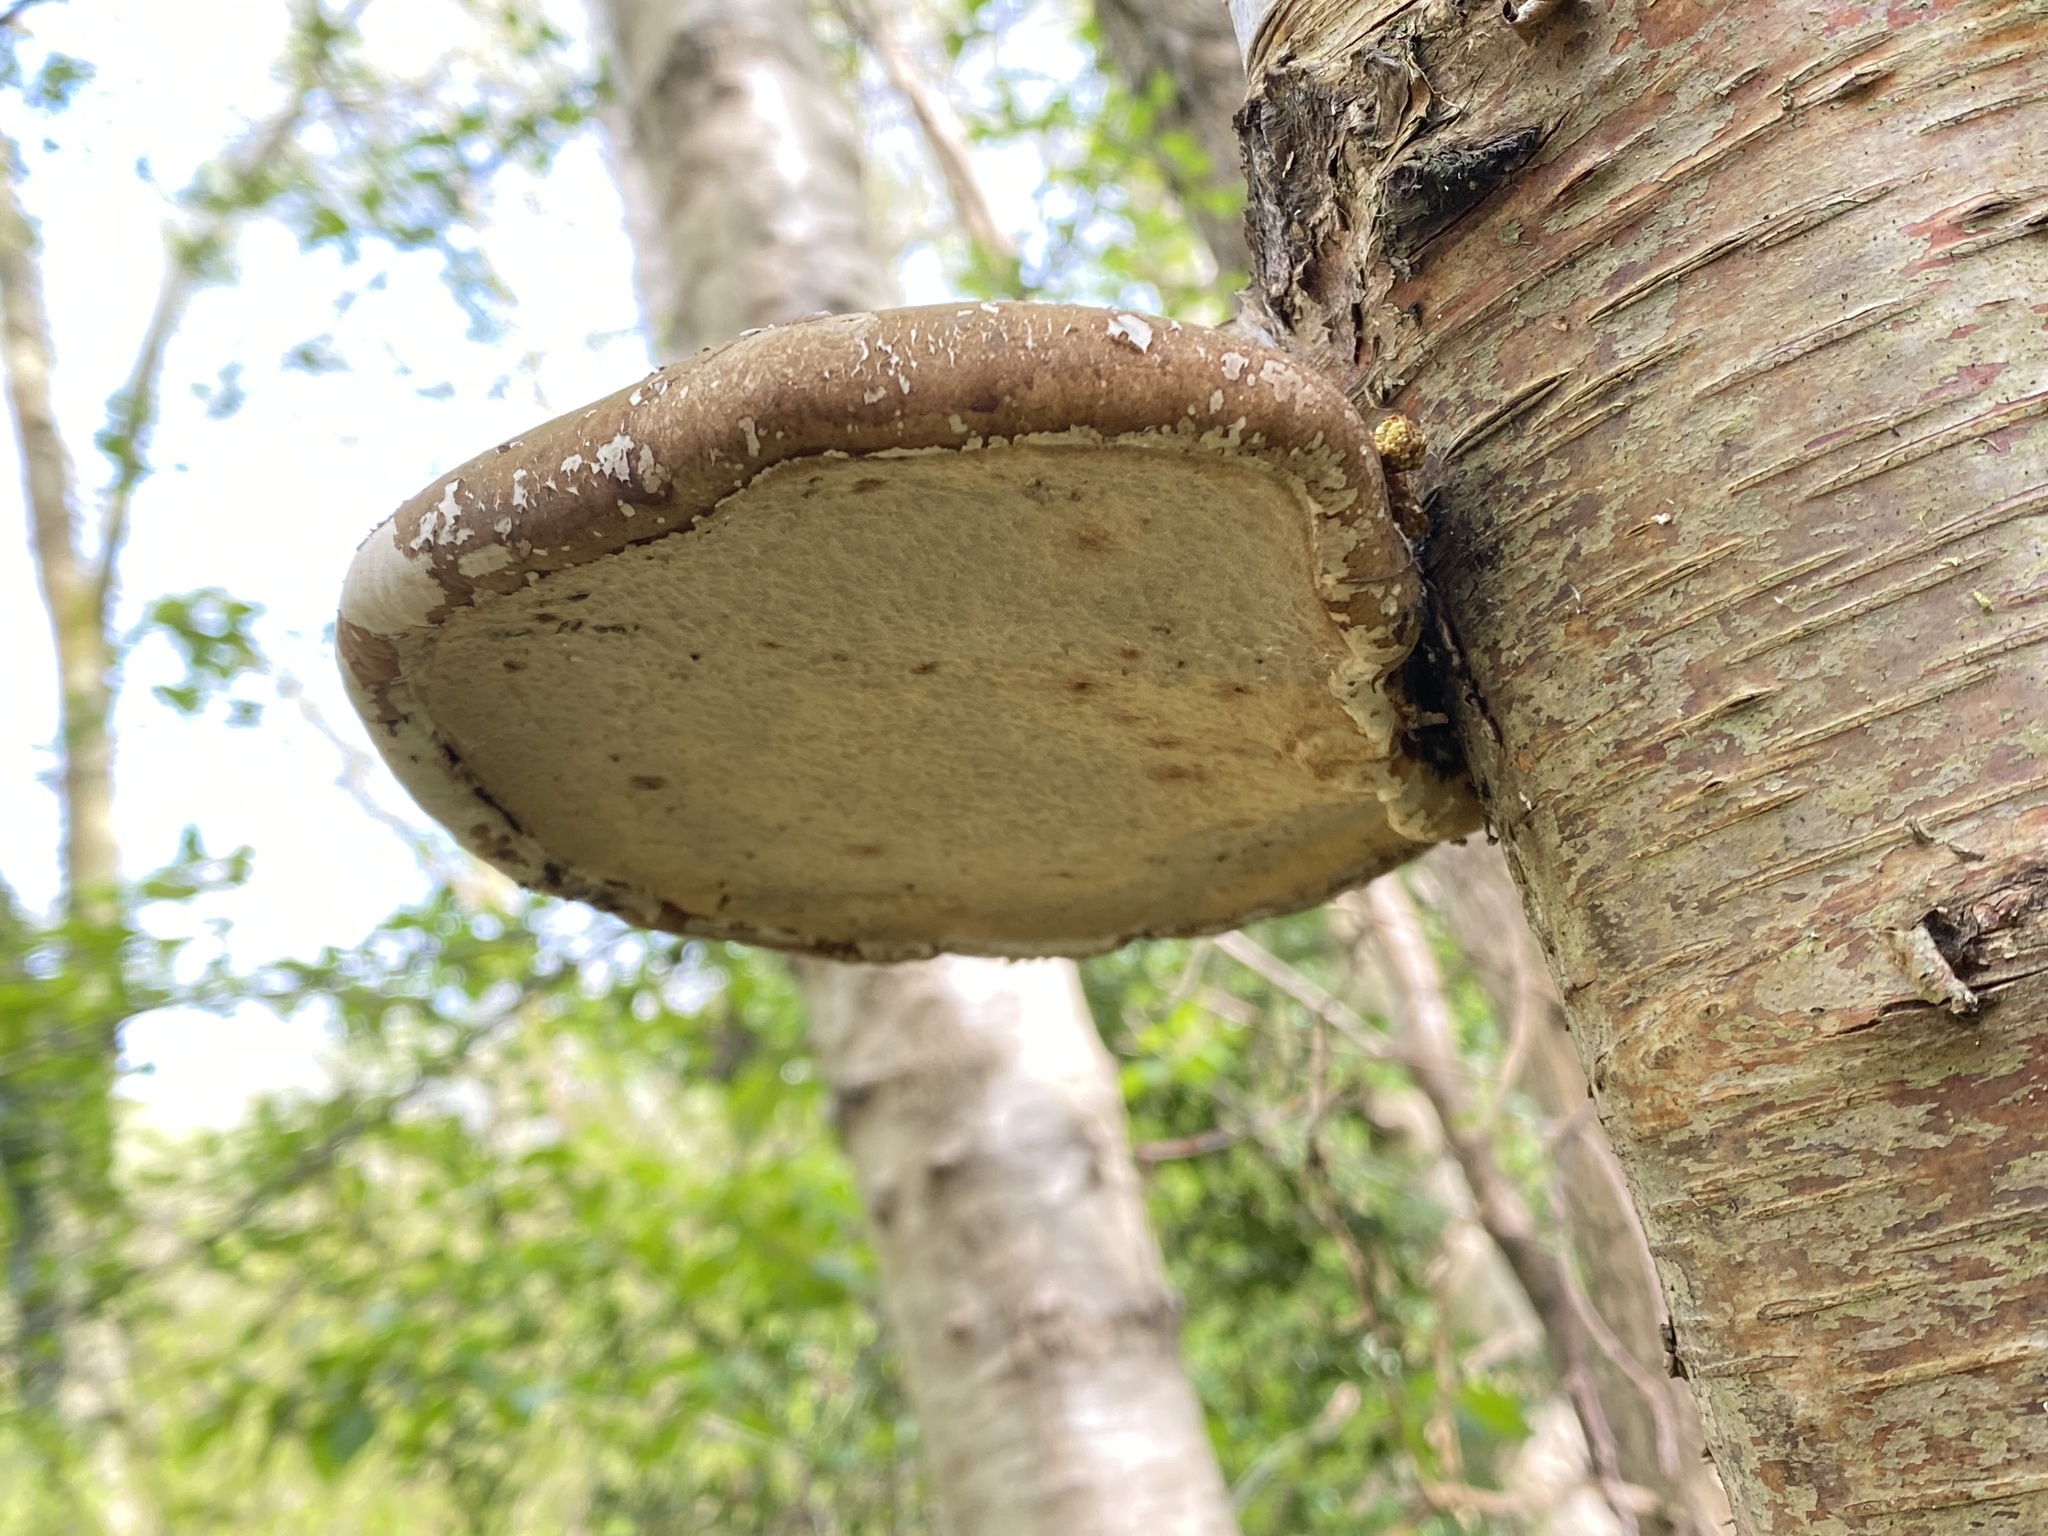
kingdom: Fungi
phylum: Basidiomycota
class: Agaricomycetes
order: Polyporales
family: Fomitopsidaceae
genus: Fomitopsis
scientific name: Fomitopsis betulina
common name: Birch polypore
